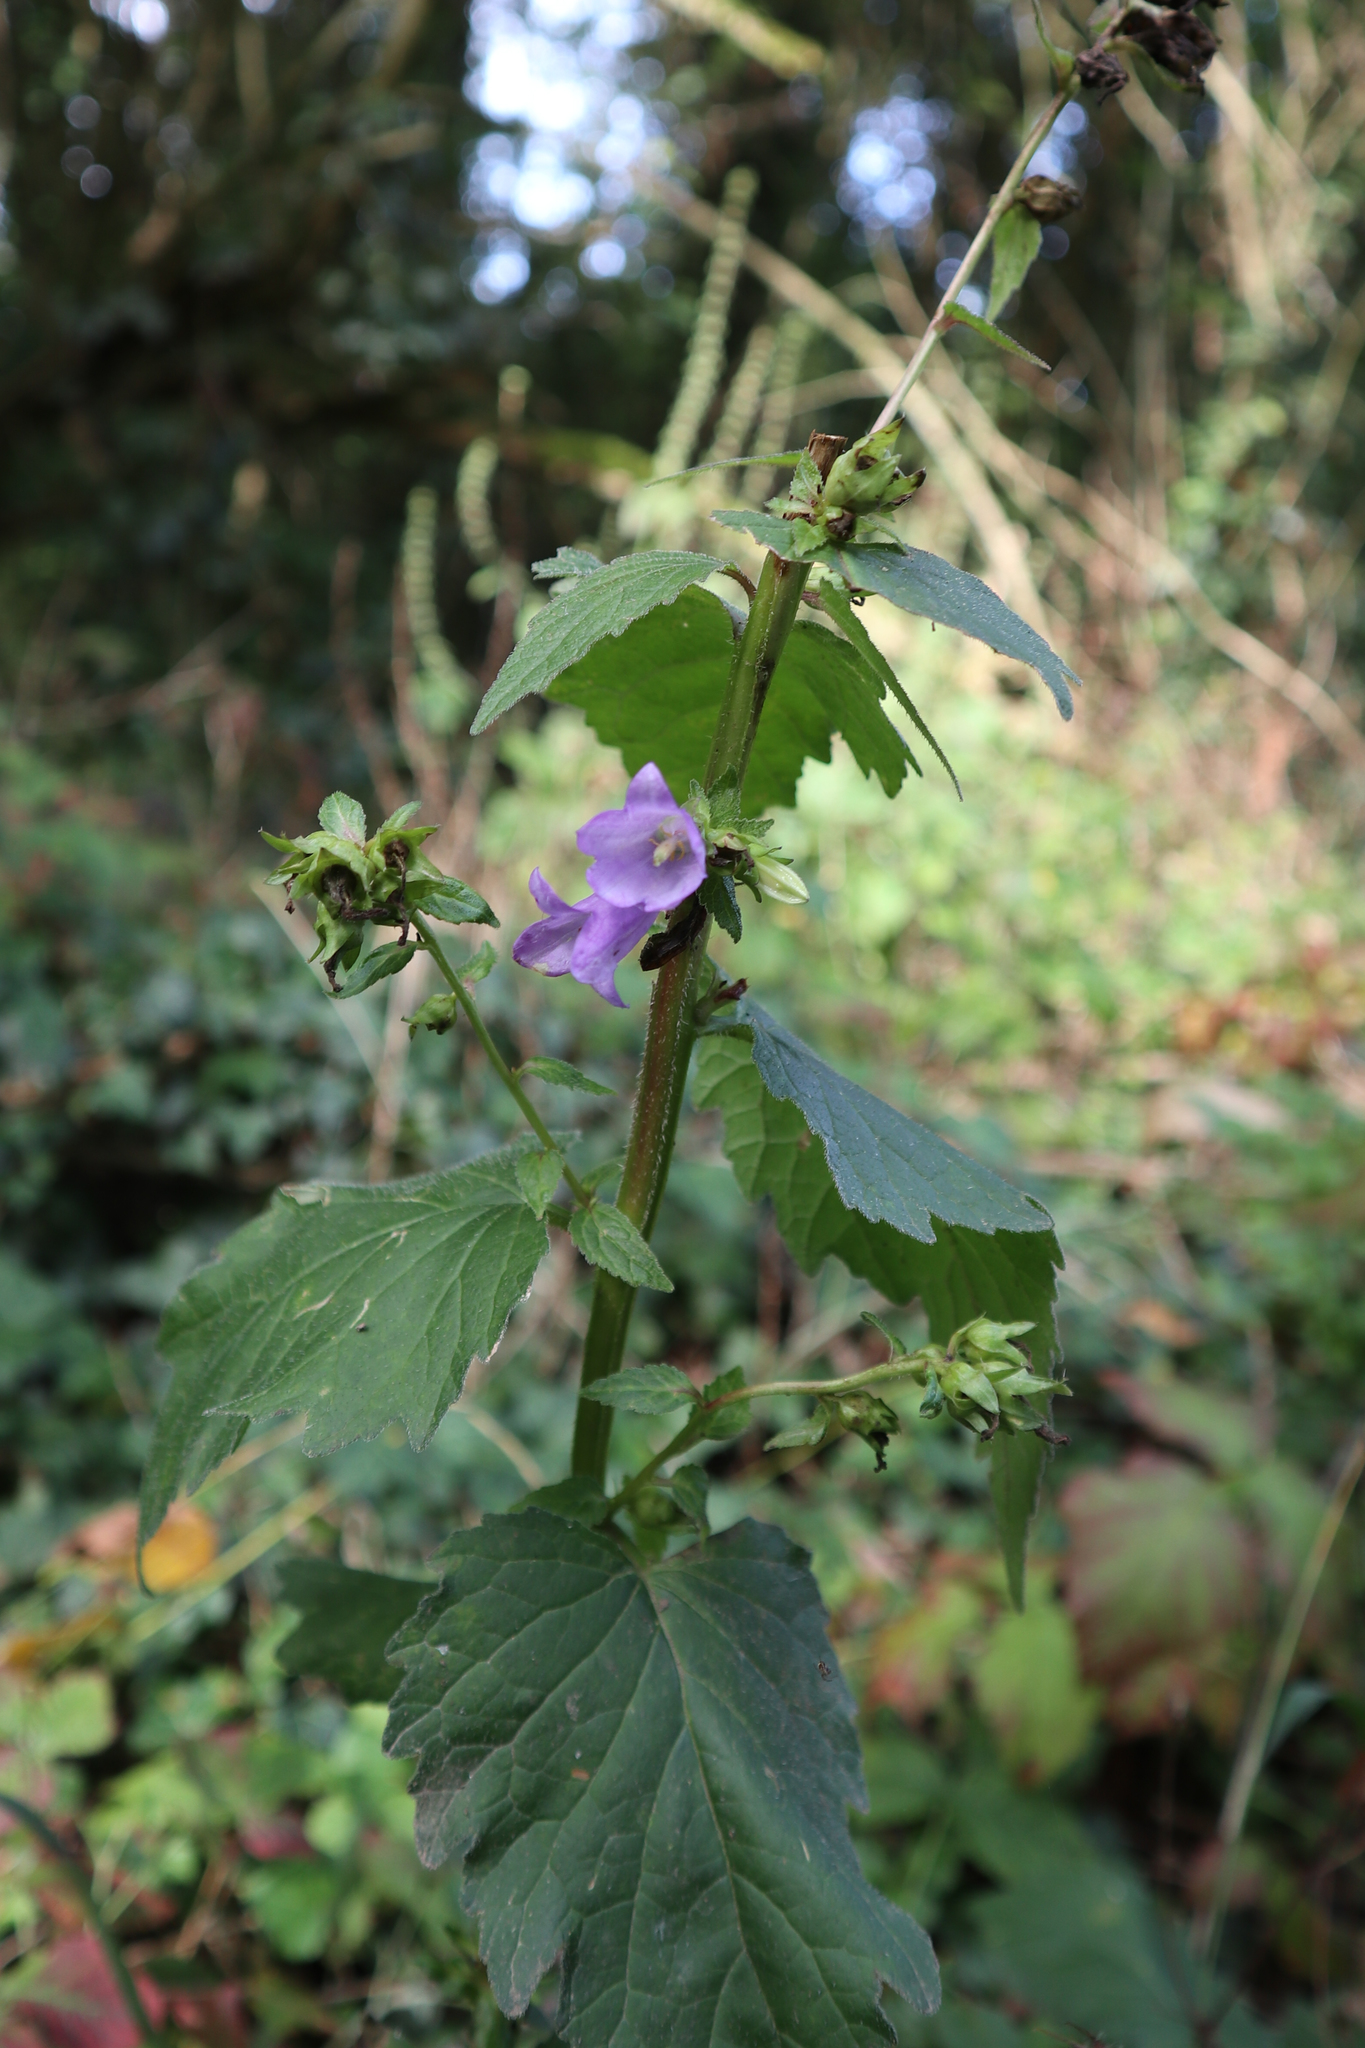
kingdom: Plantae
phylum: Tracheophyta
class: Magnoliopsida
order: Asterales
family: Campanulaceae
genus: Campanula
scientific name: Campanula trachelium
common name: Nettle-leaved bellflower
